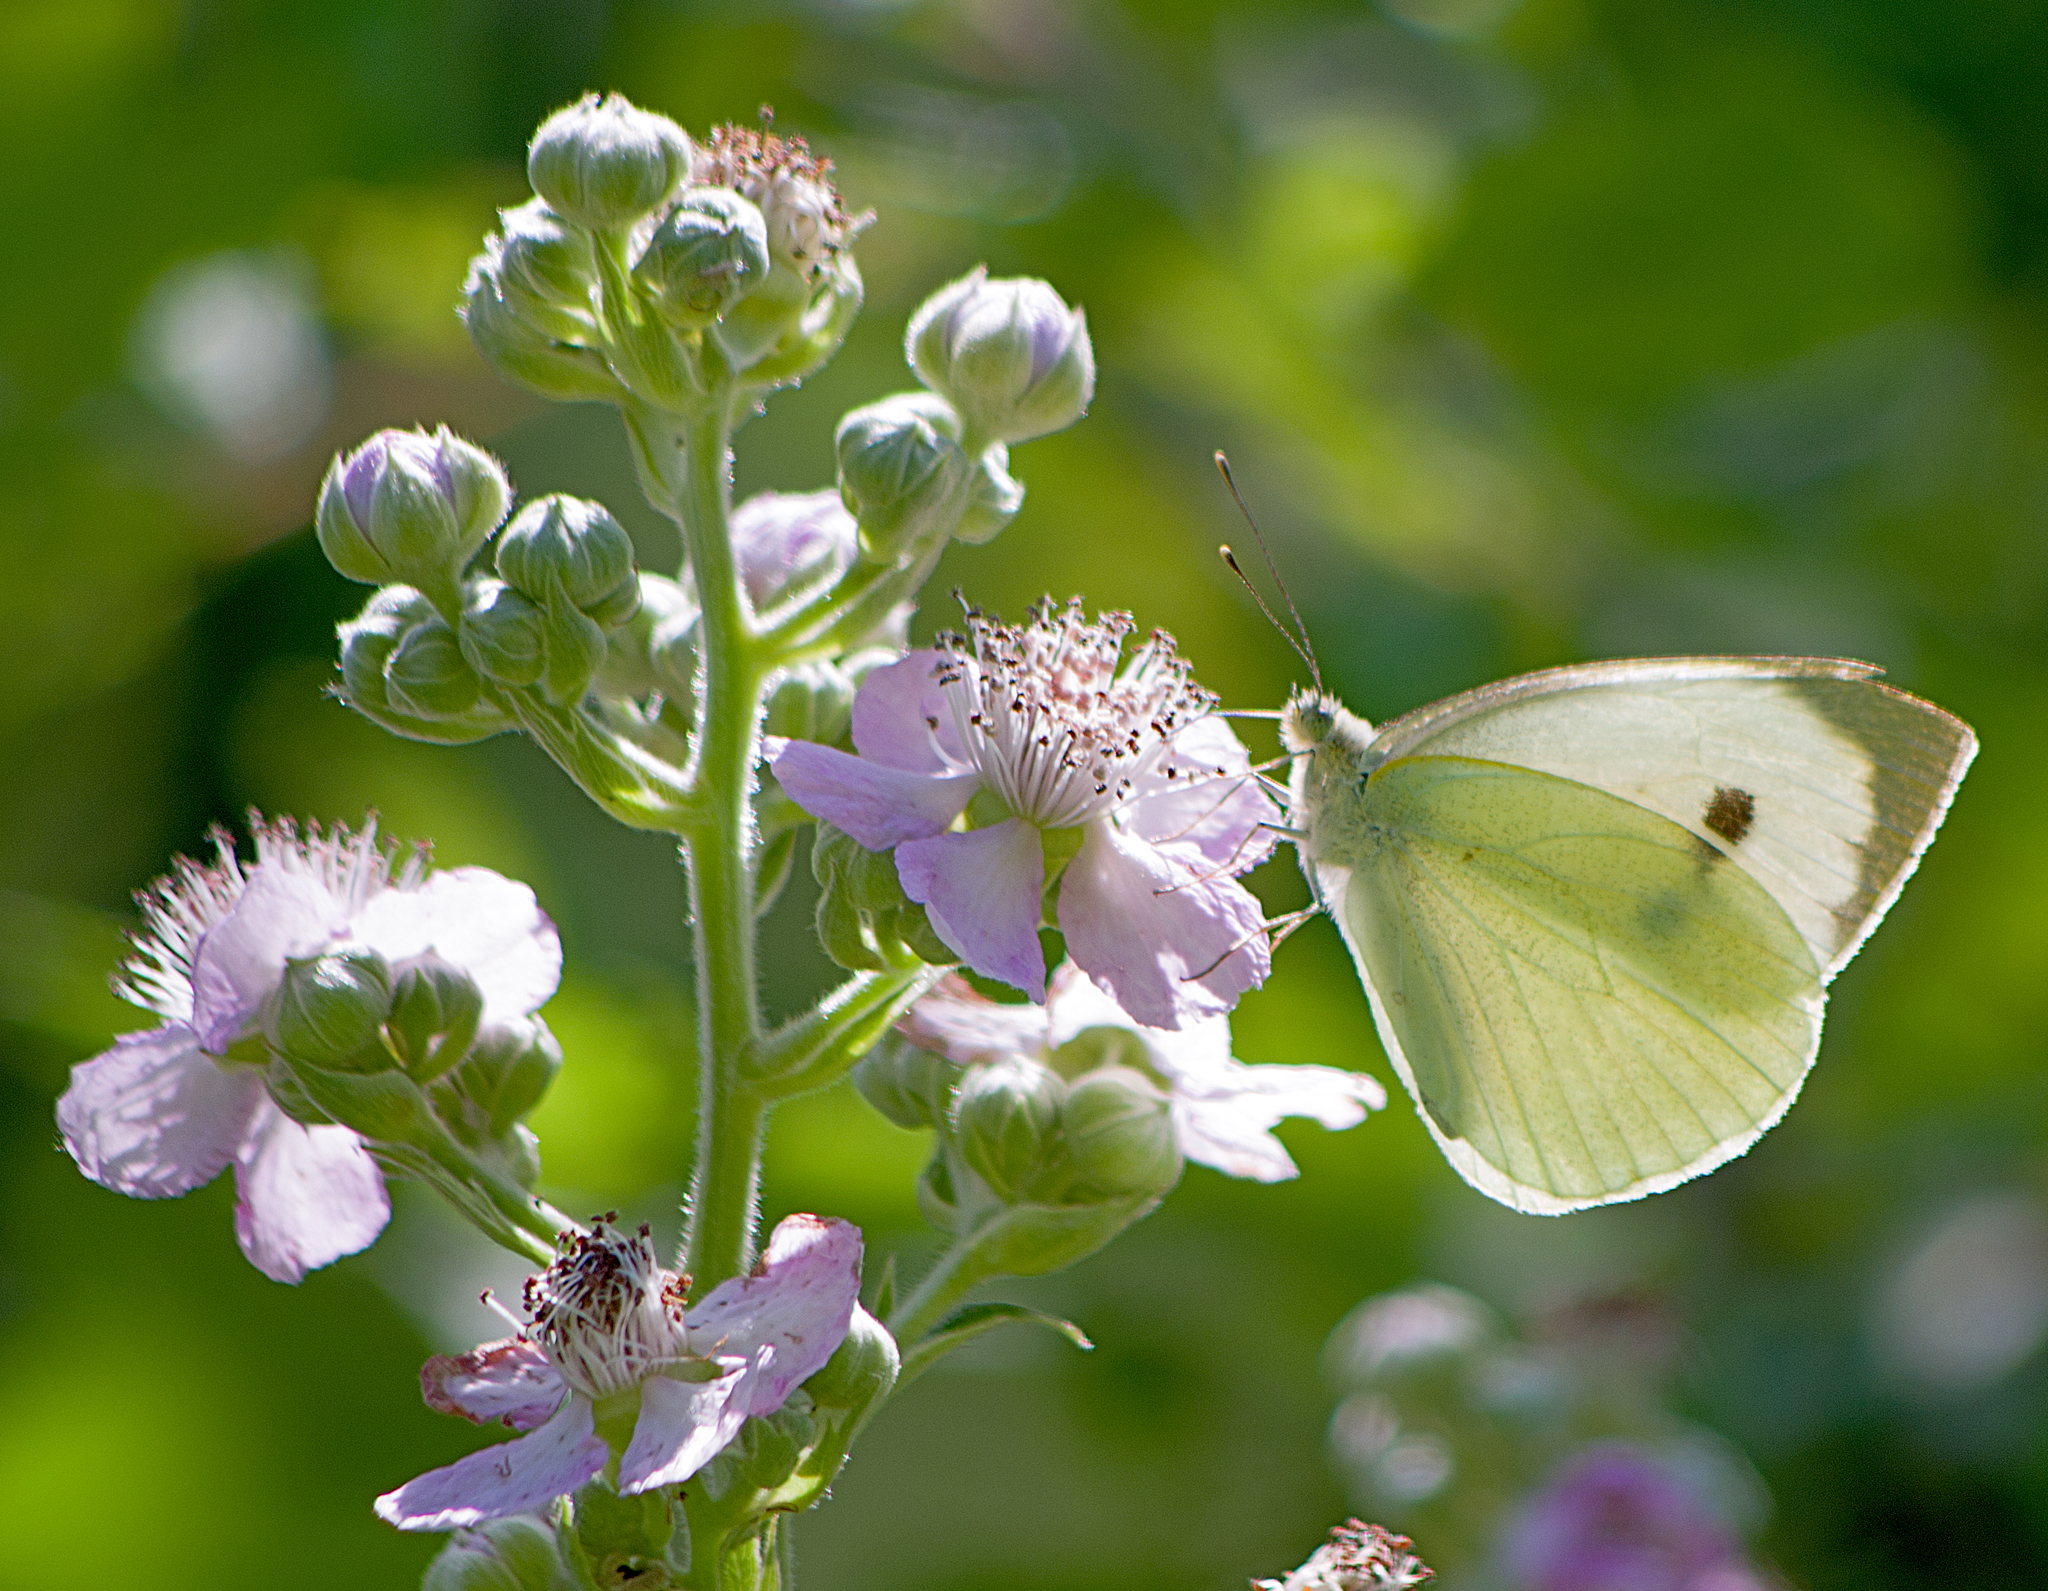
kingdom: Animalia
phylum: Arthropoda
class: Insecta
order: Lepidoptera
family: Pieridae
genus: Pieris
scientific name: Pieris brassicae
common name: Large white
